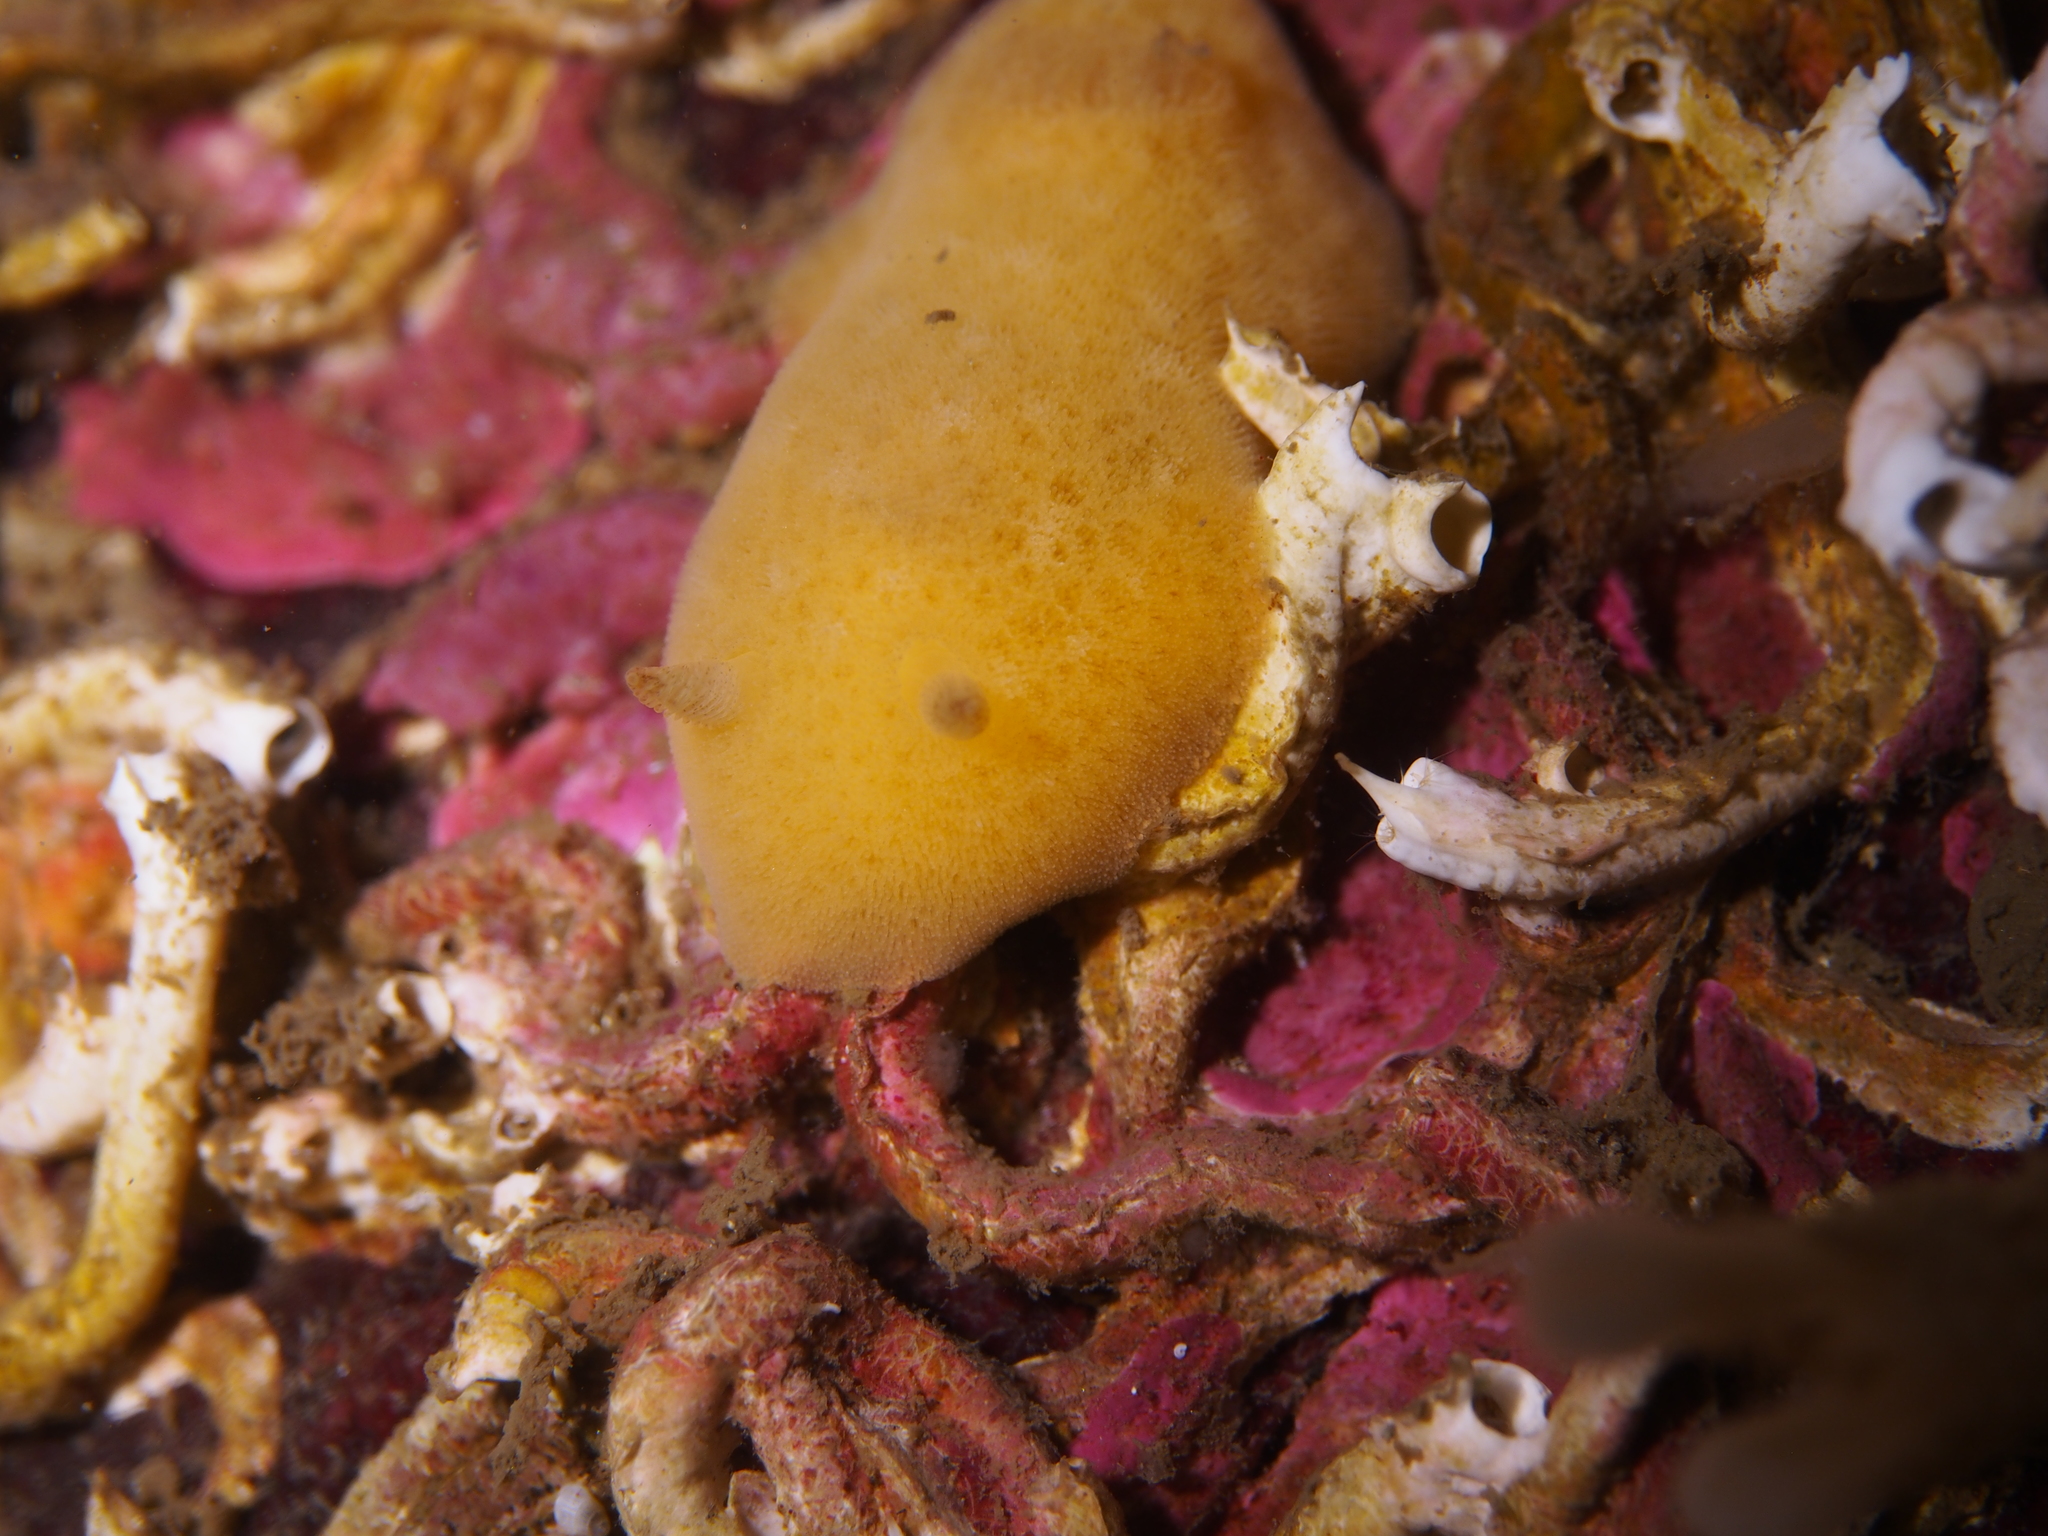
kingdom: Animalia
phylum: Mollusca
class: Gastropoda
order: Nudibranchia
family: Discodorididae
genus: Jorunna
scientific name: Jorunna tomentosa
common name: Grey sea slug
